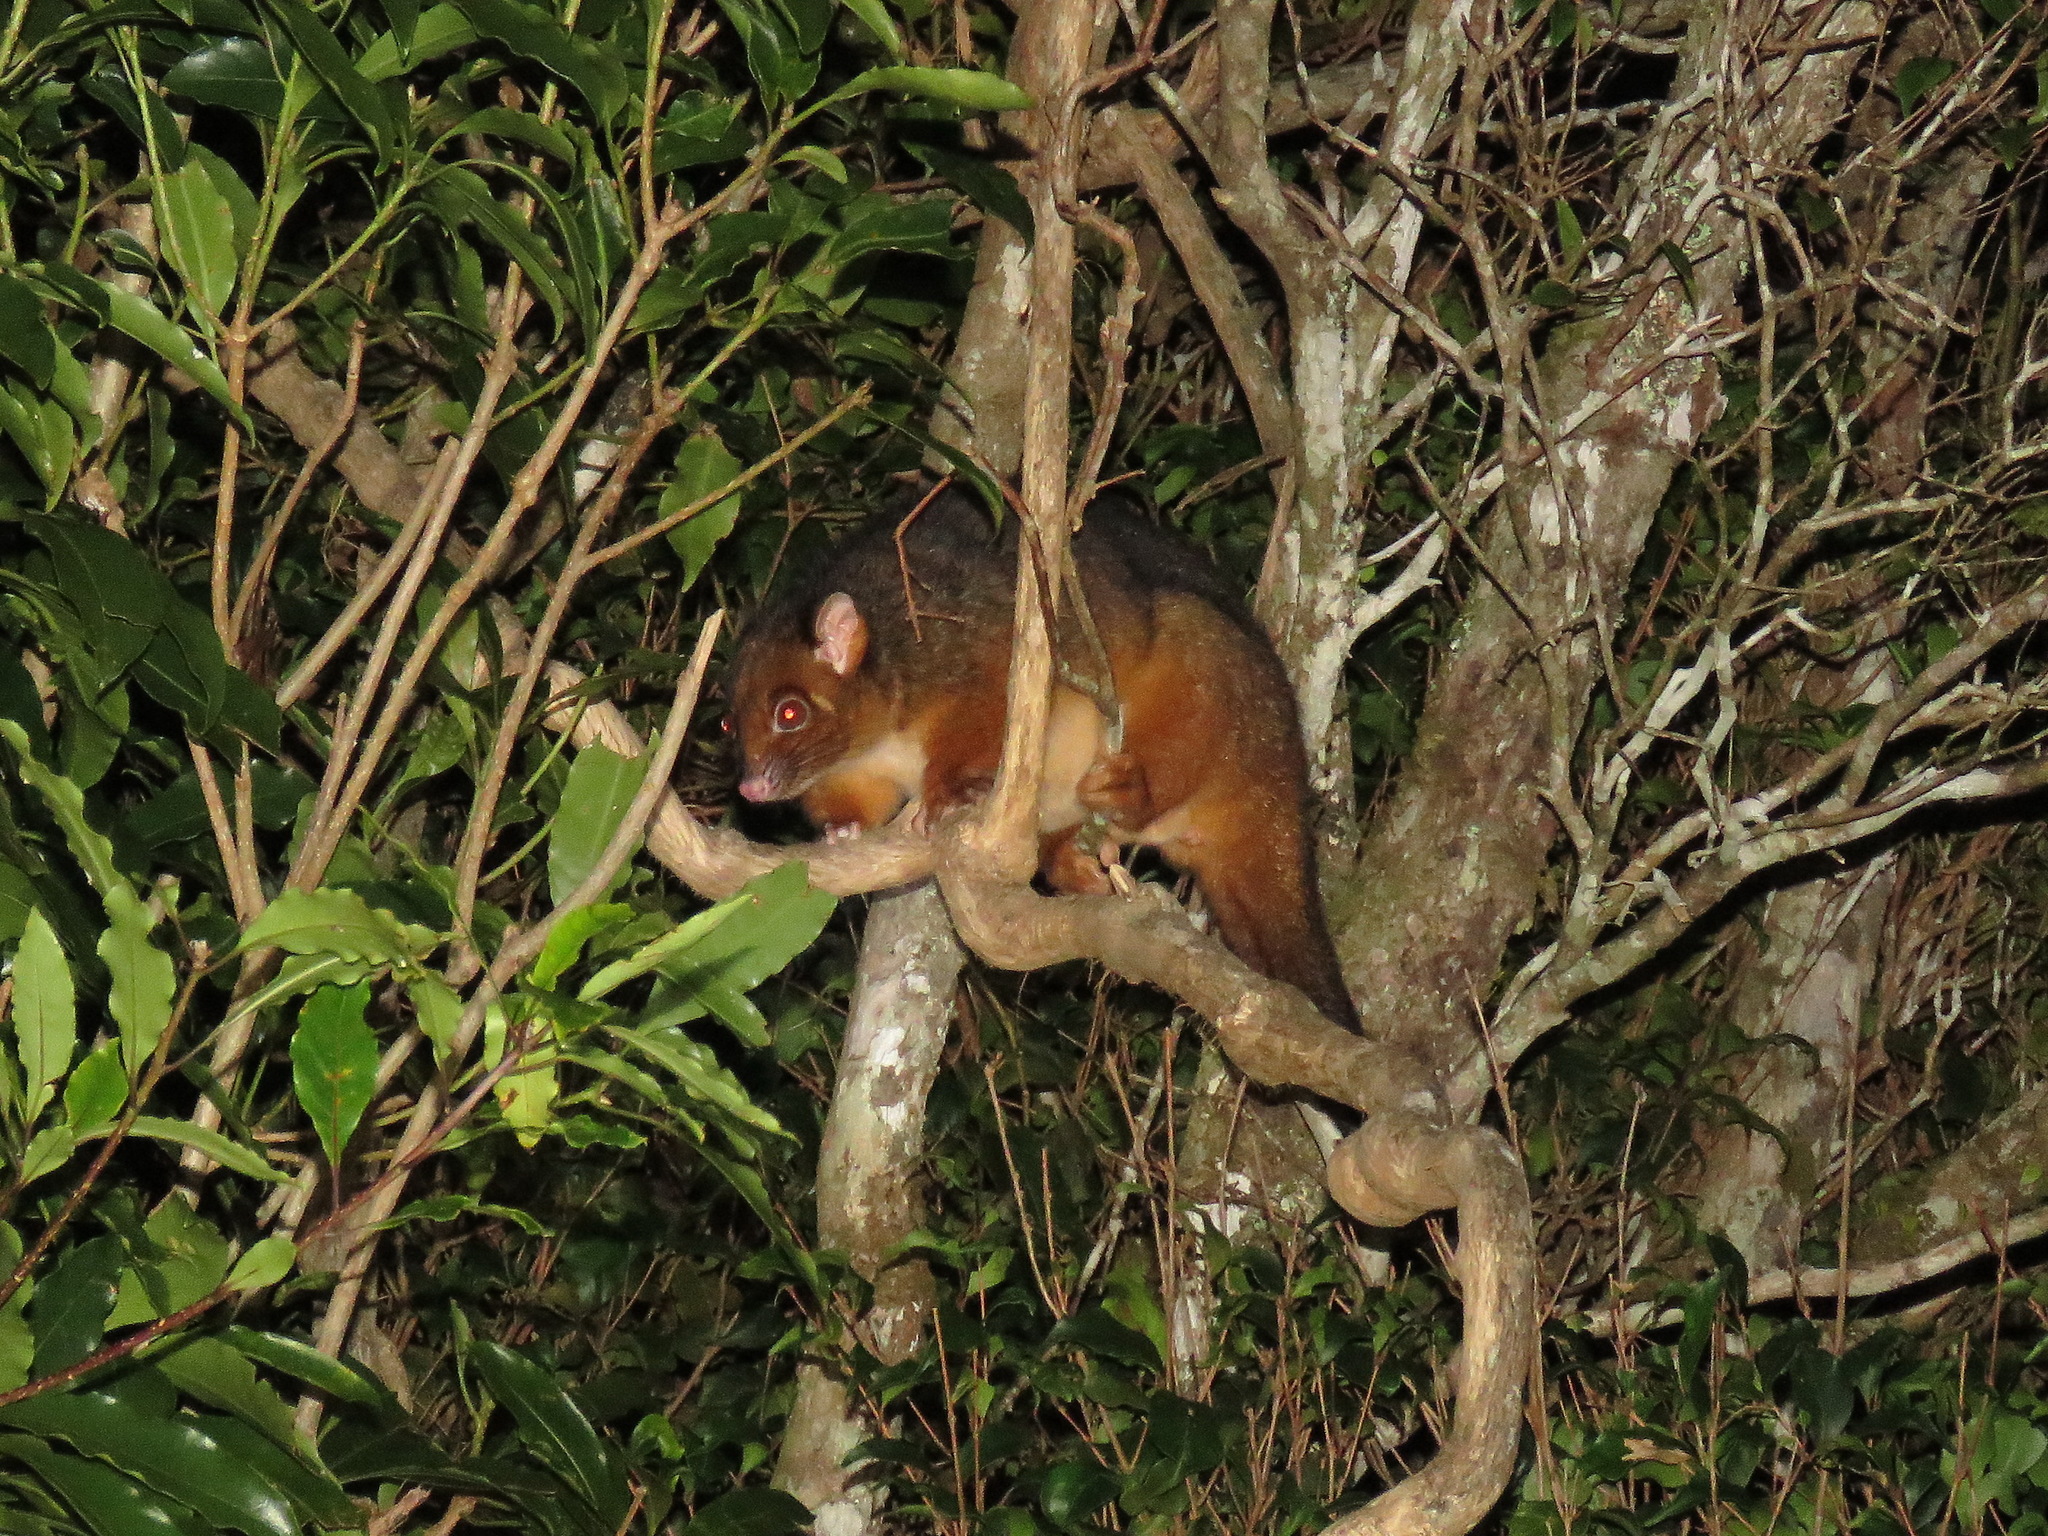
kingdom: Animalia
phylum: Chordata
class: Mammalia
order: Diprotodontia
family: Pseudocheiridae
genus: Pseudocheirus
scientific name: Pseudocheirus peregrinus
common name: Common ringtail possum
